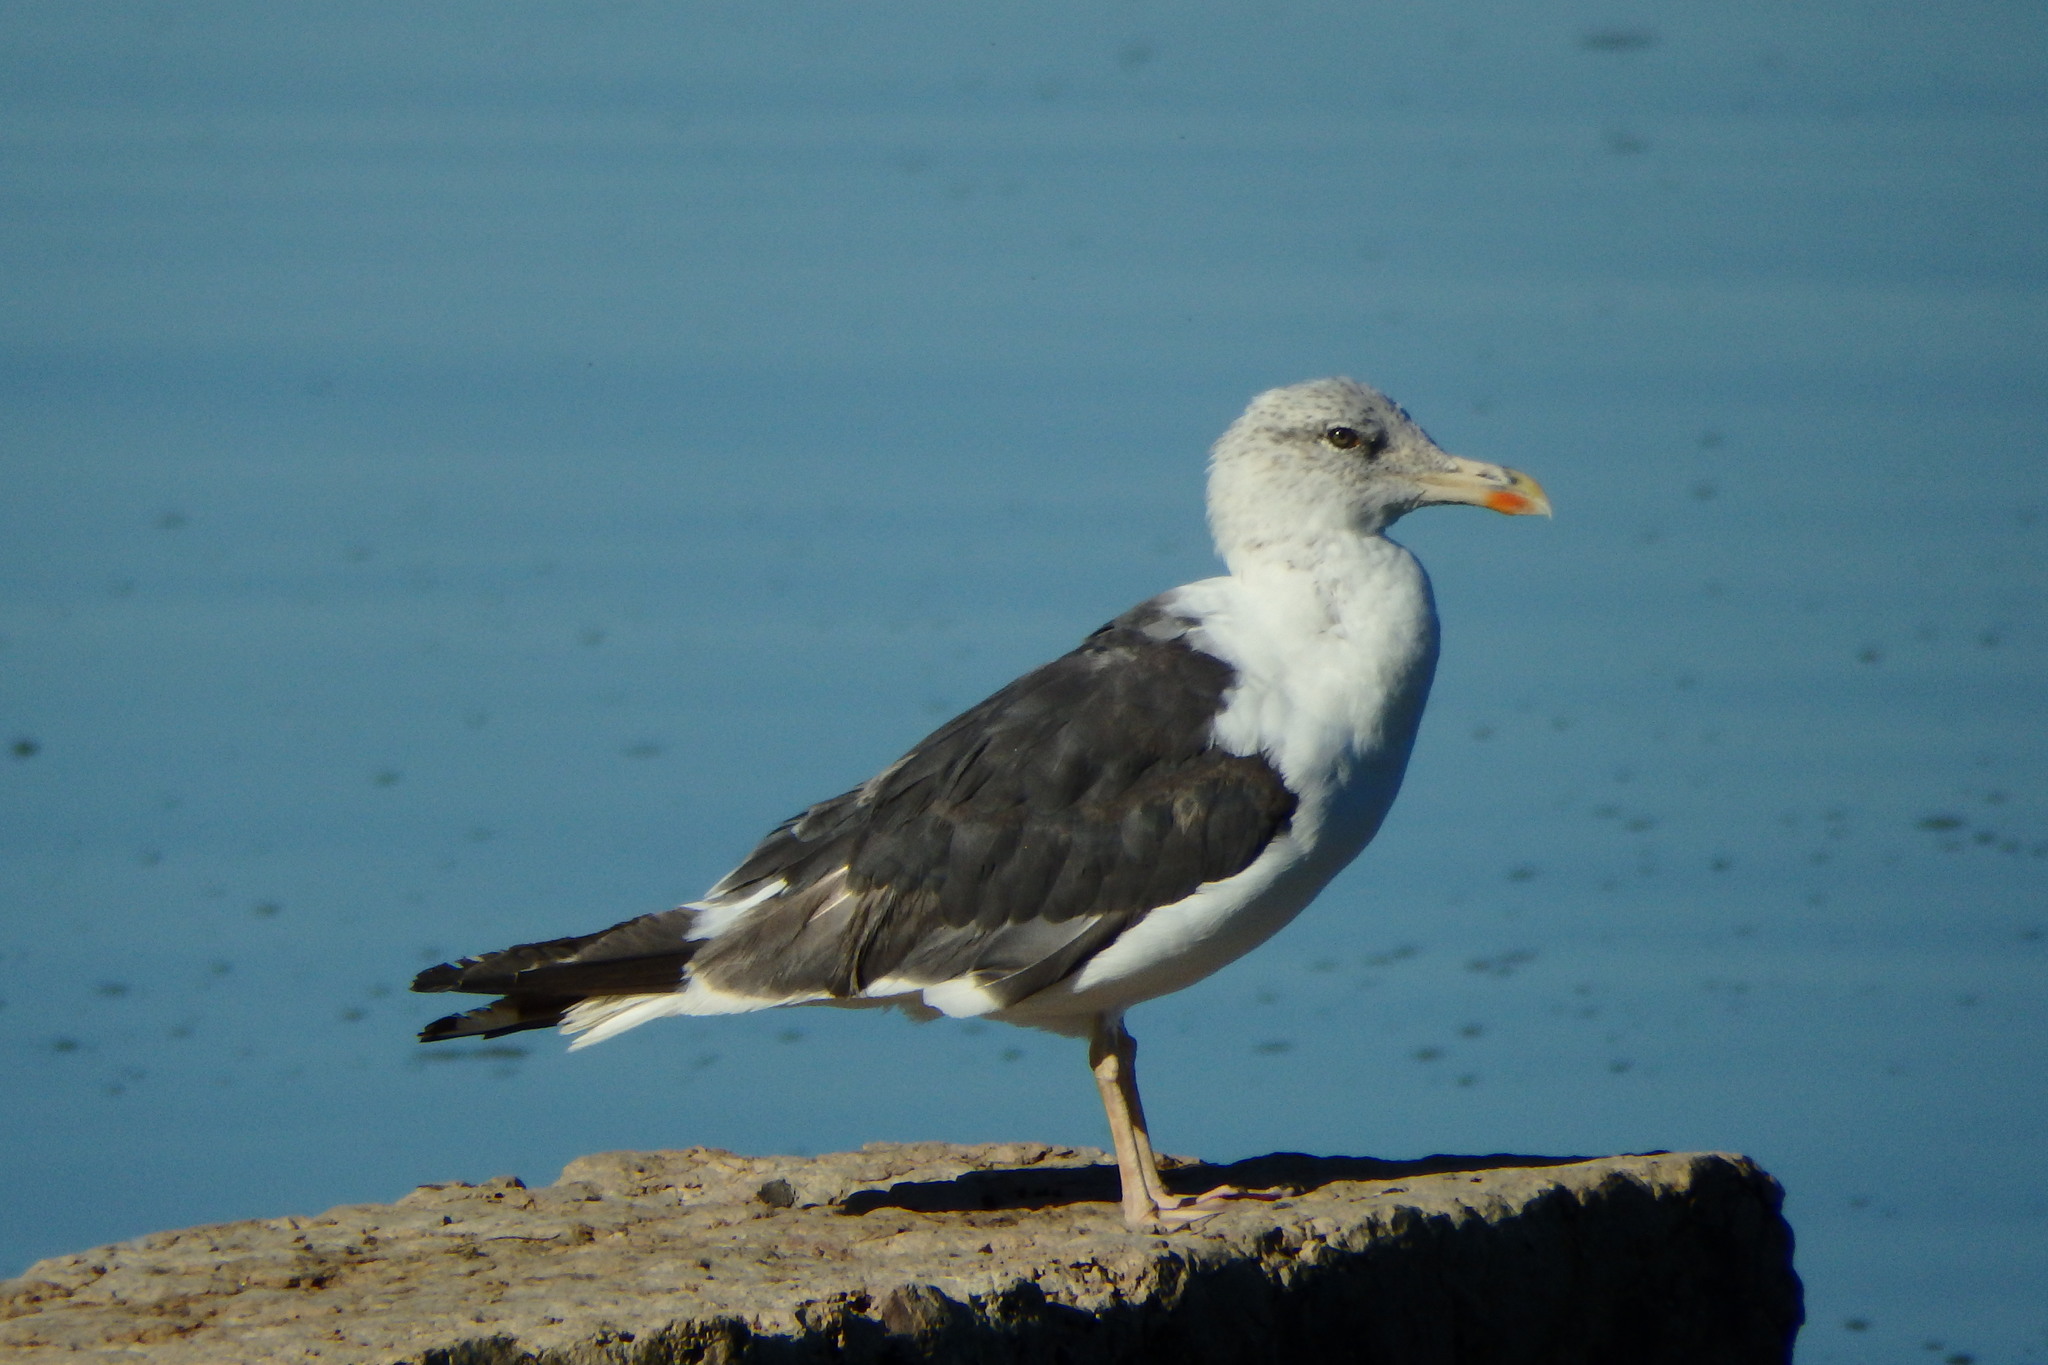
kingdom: Animalia
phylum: Chordata
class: Aves
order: Charadriiformes
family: Laridae
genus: Larus
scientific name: Larus fuscus
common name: Lesser black-backed gull
